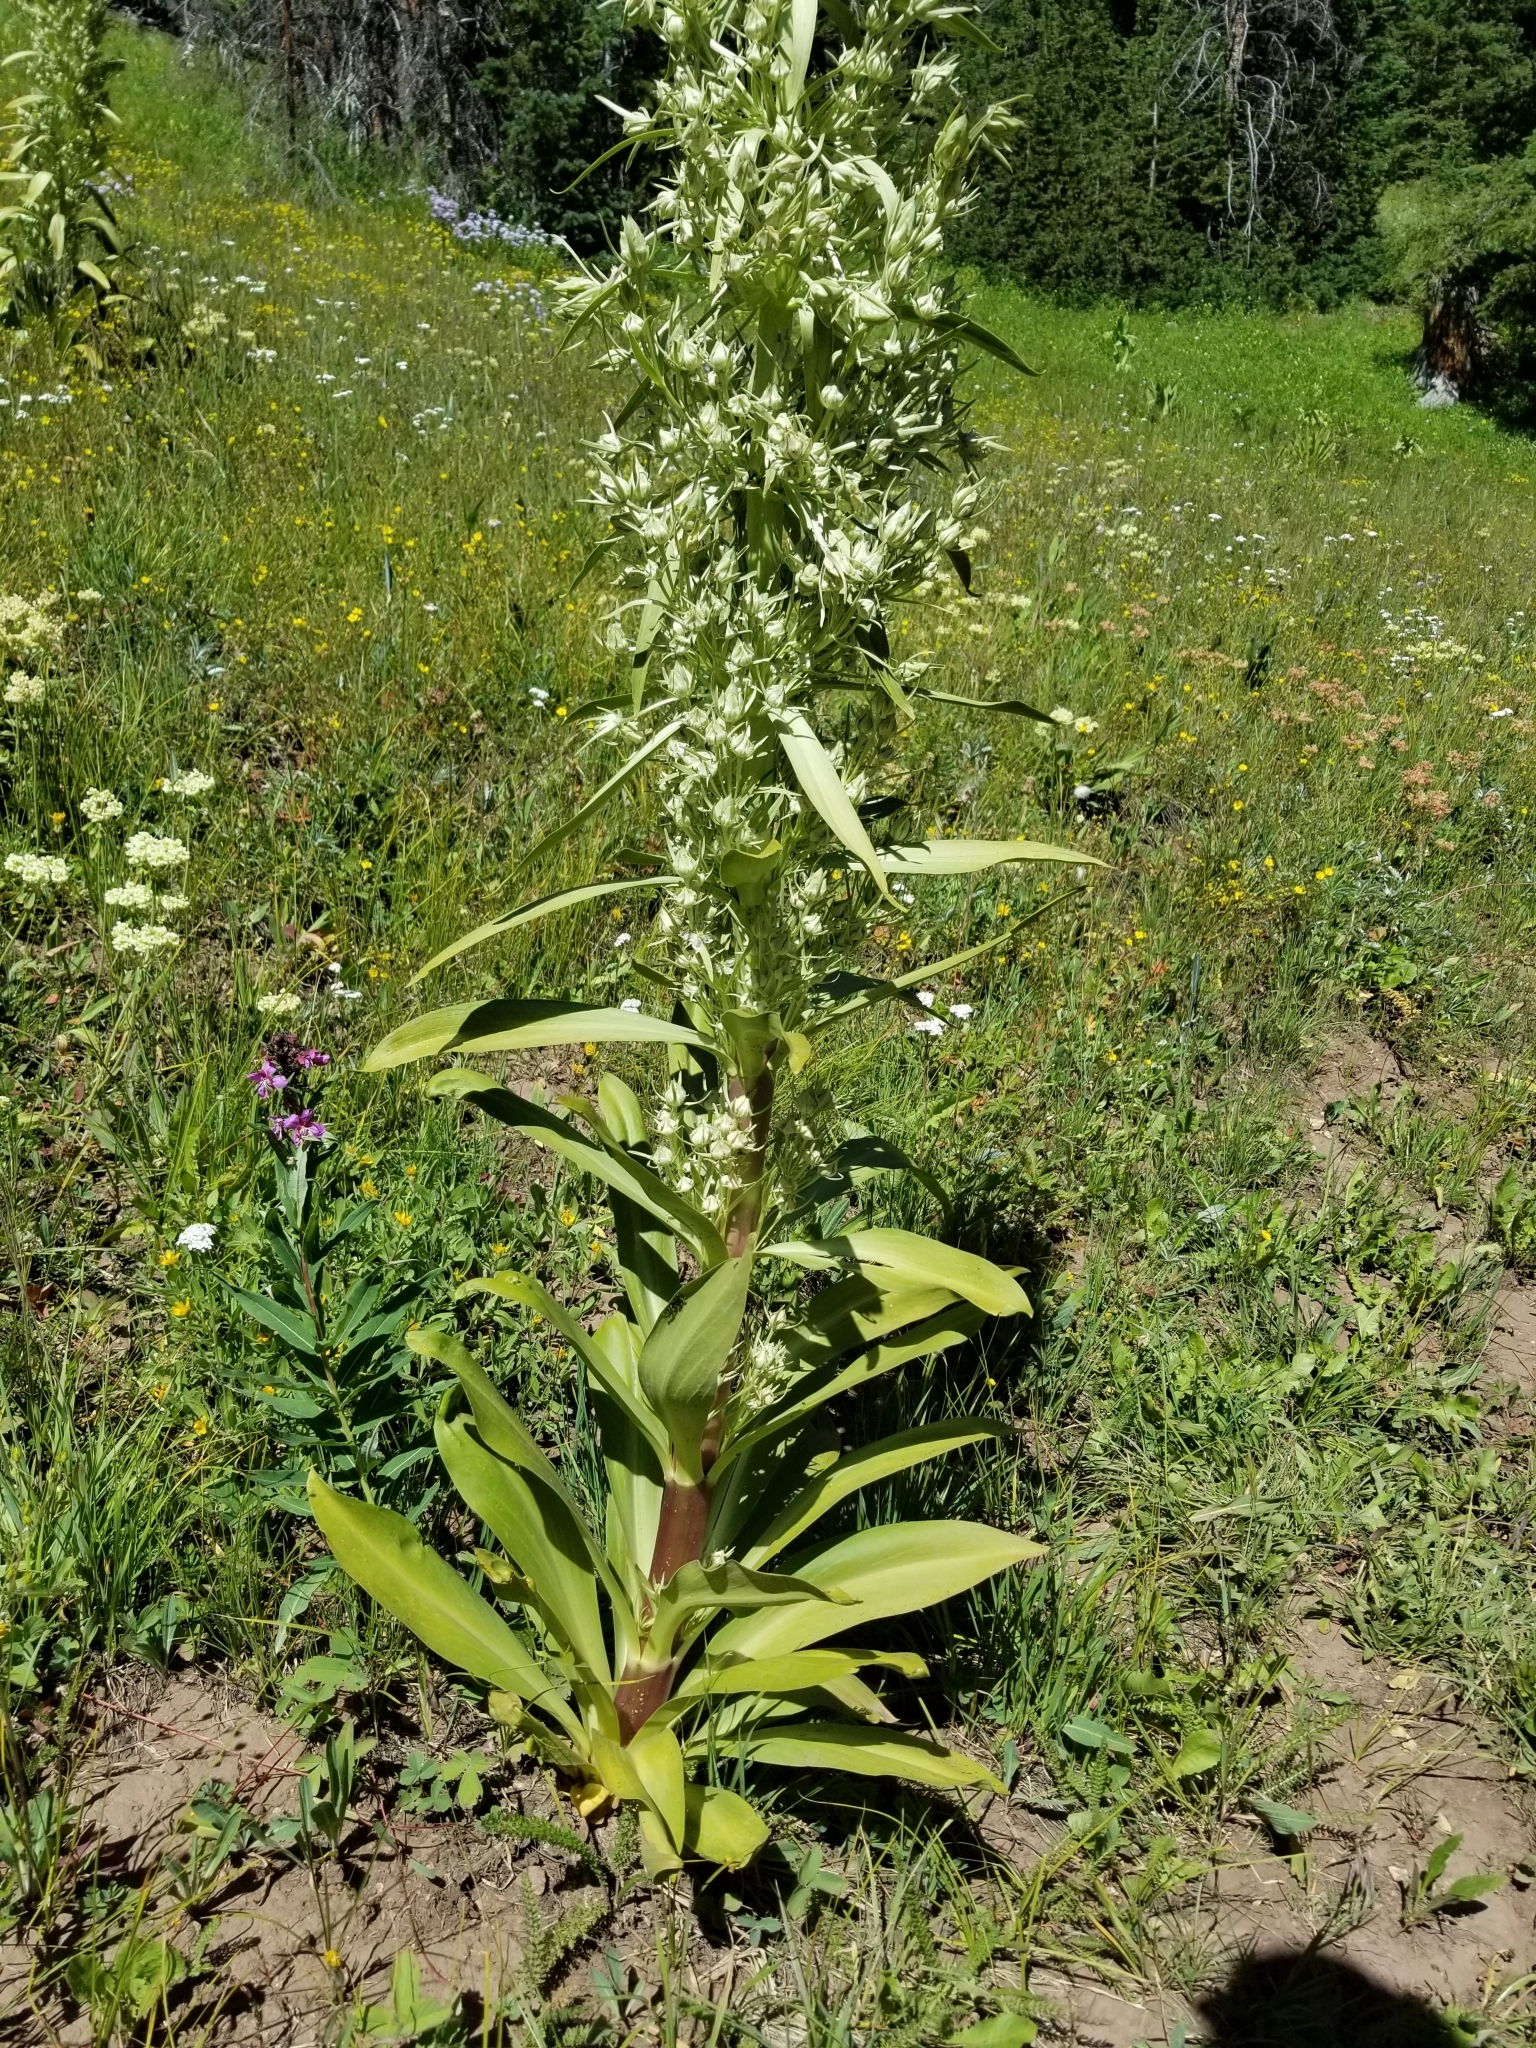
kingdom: Plantae
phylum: Tracheophyta
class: Magnoliopsida
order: Gentianales
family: Gentianaceae
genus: Frasera
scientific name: Frasera speciosa
